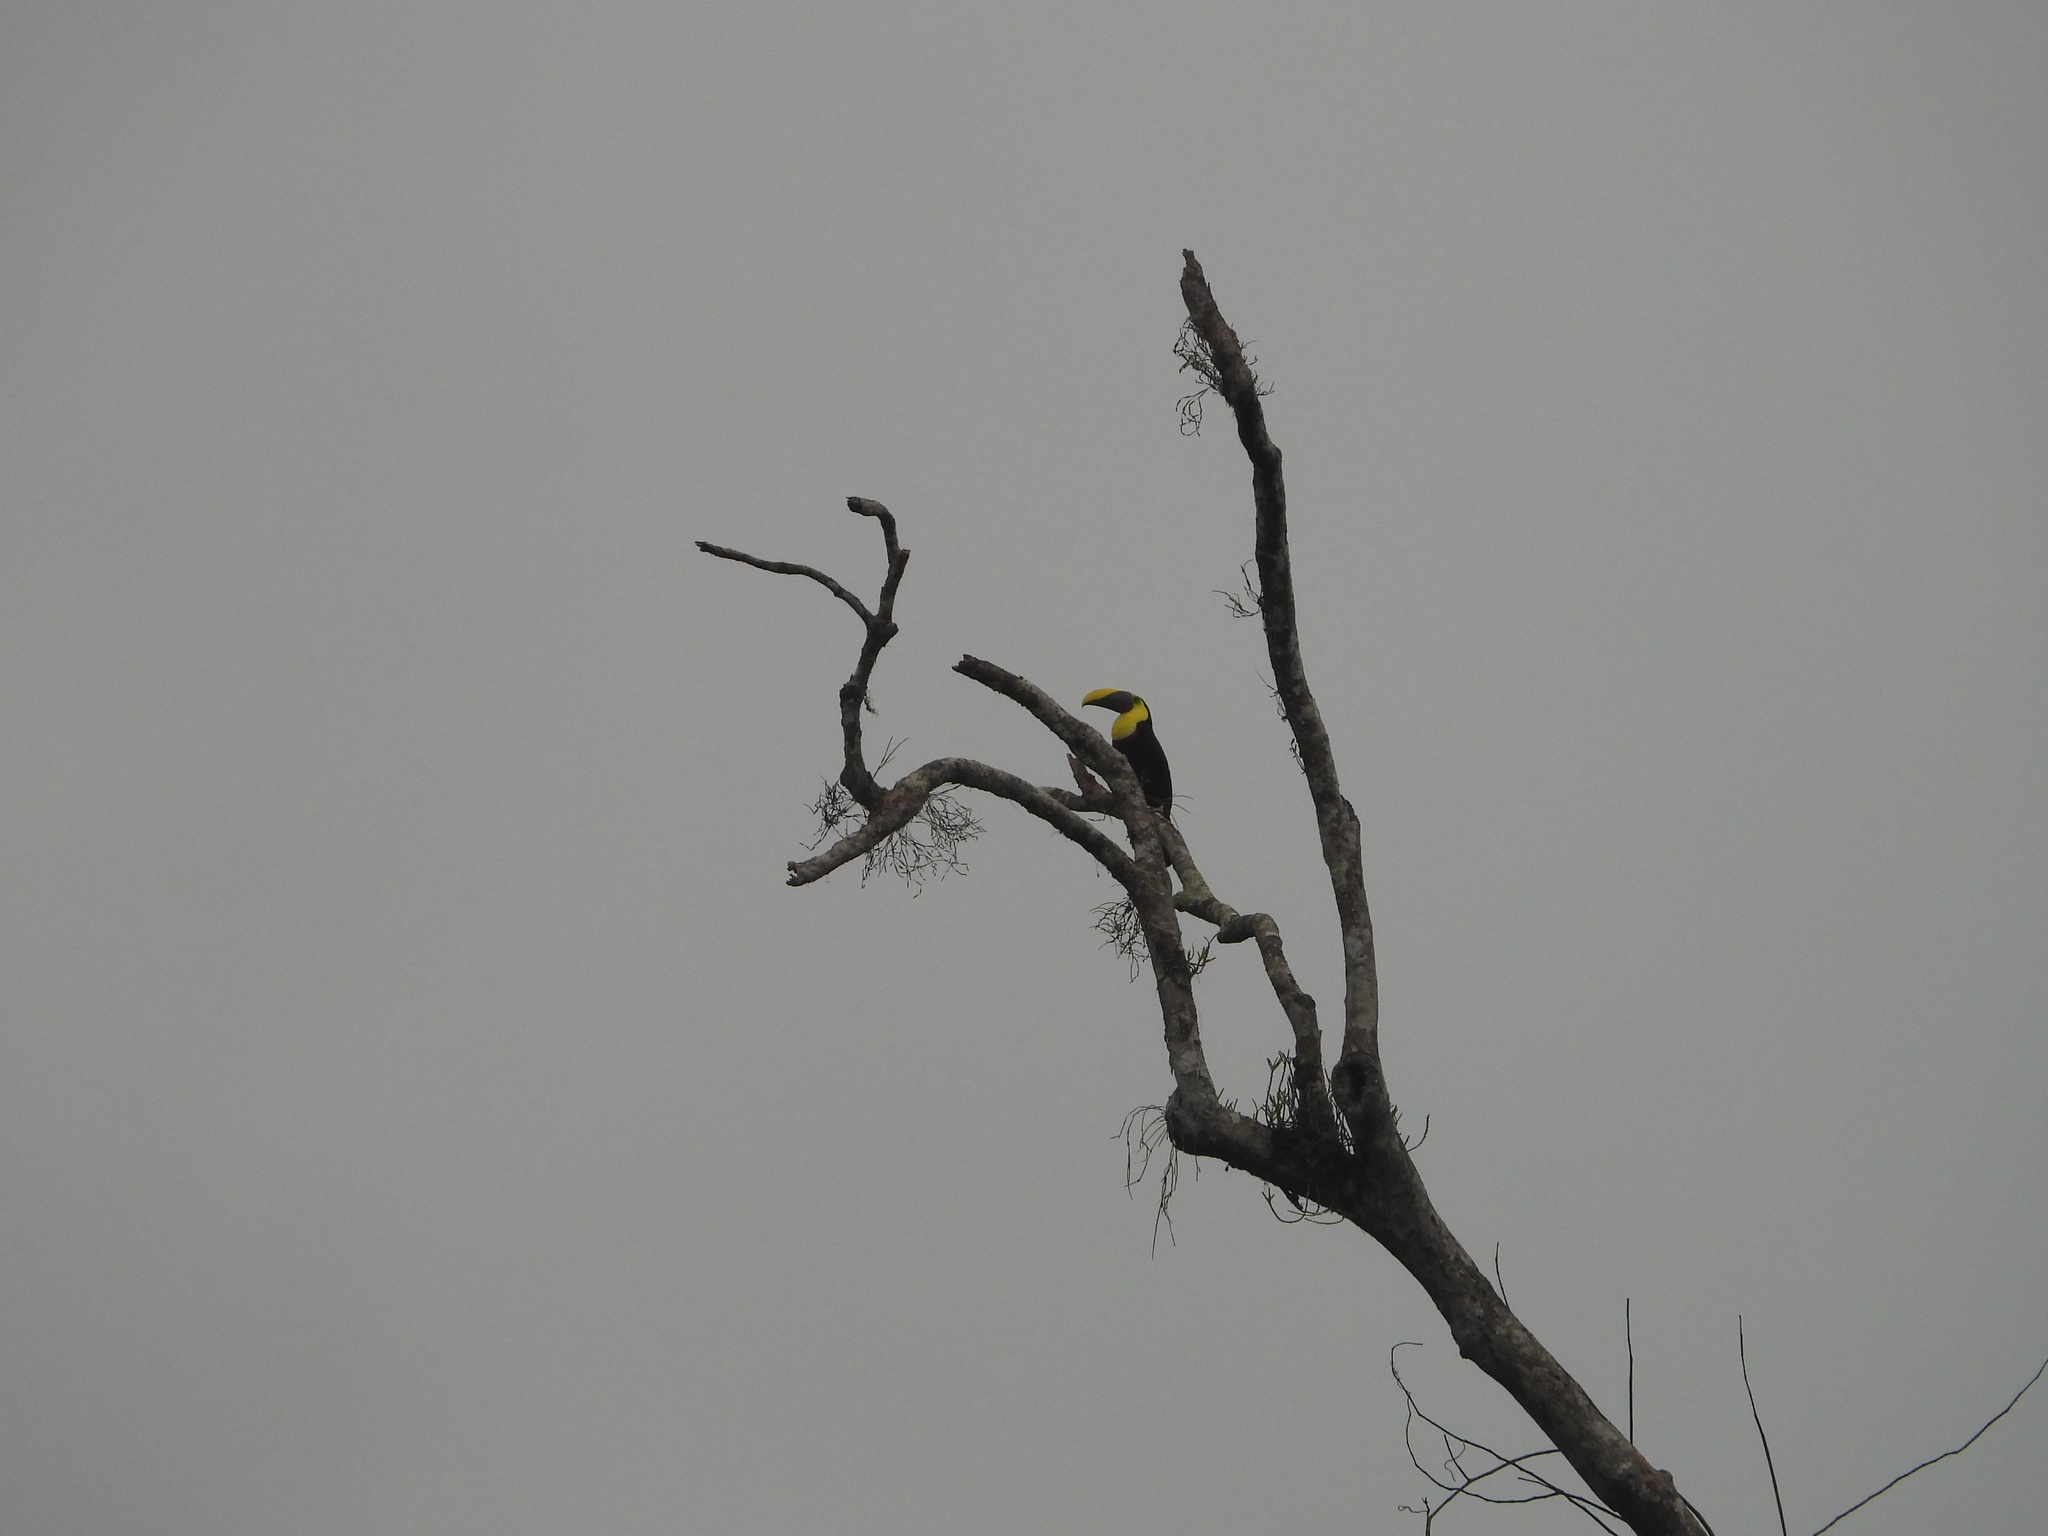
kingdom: Animalia
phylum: Chordata
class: Aves
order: Piciformes
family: Ramphastidae
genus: Ramphastos
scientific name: Ramphastos ambiguus
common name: Yellow-throated toucan
